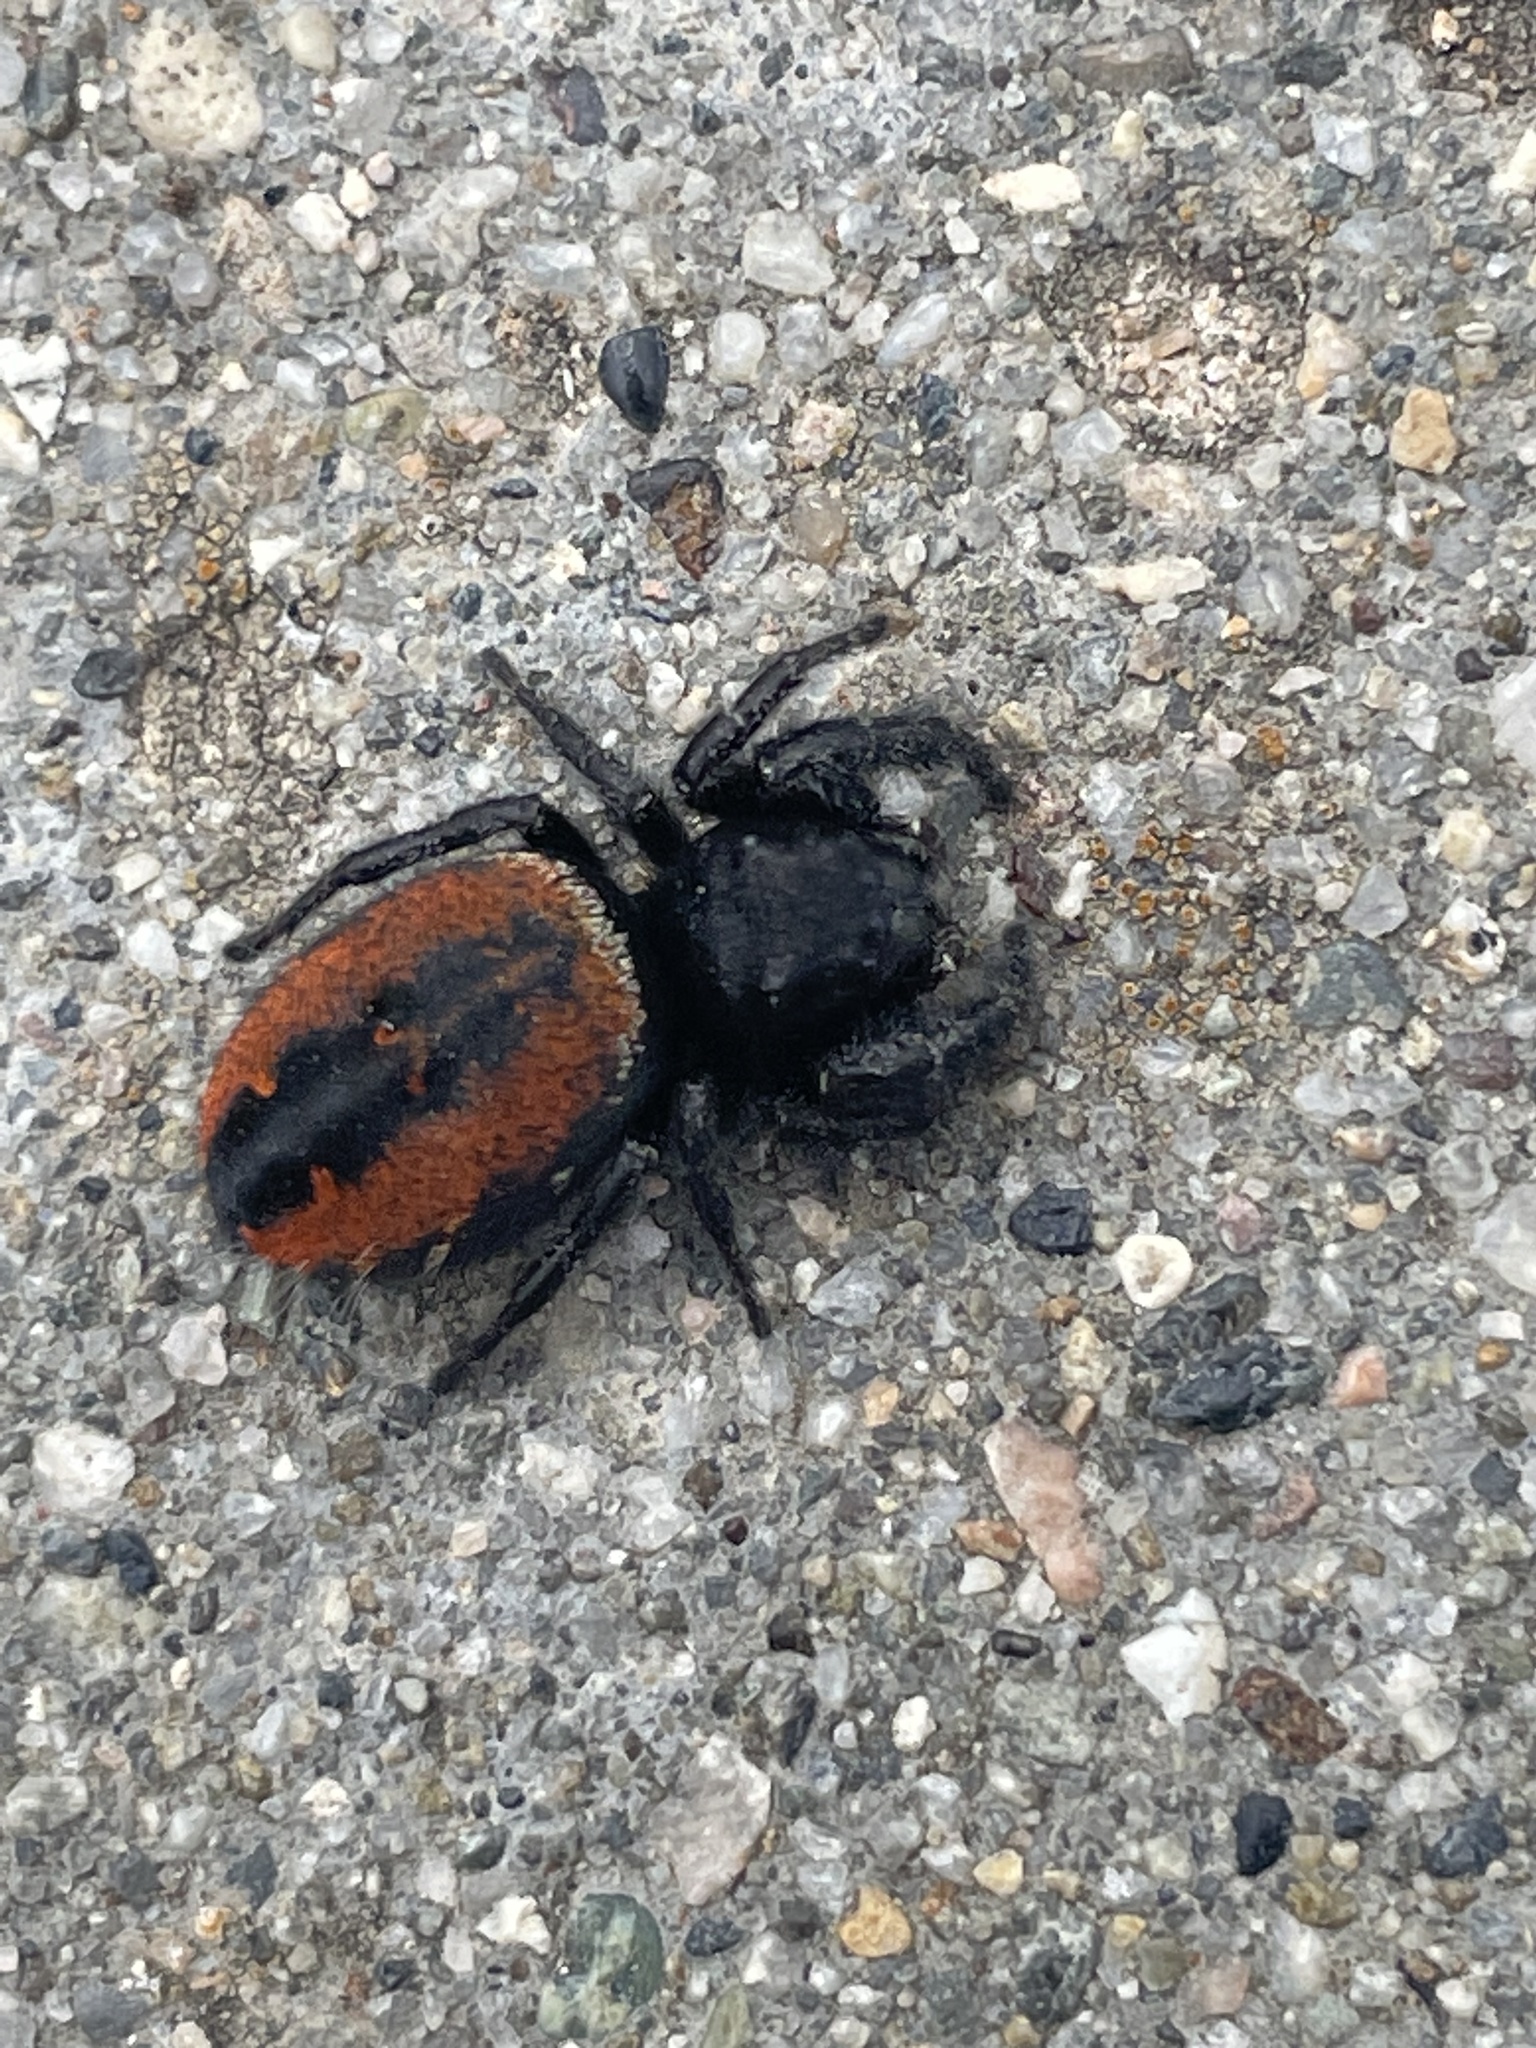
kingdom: Animalia
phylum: Arthropoda
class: Arachnida
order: Araneae
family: Salticidae
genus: Phidippus
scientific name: Phidippus johnsoni
